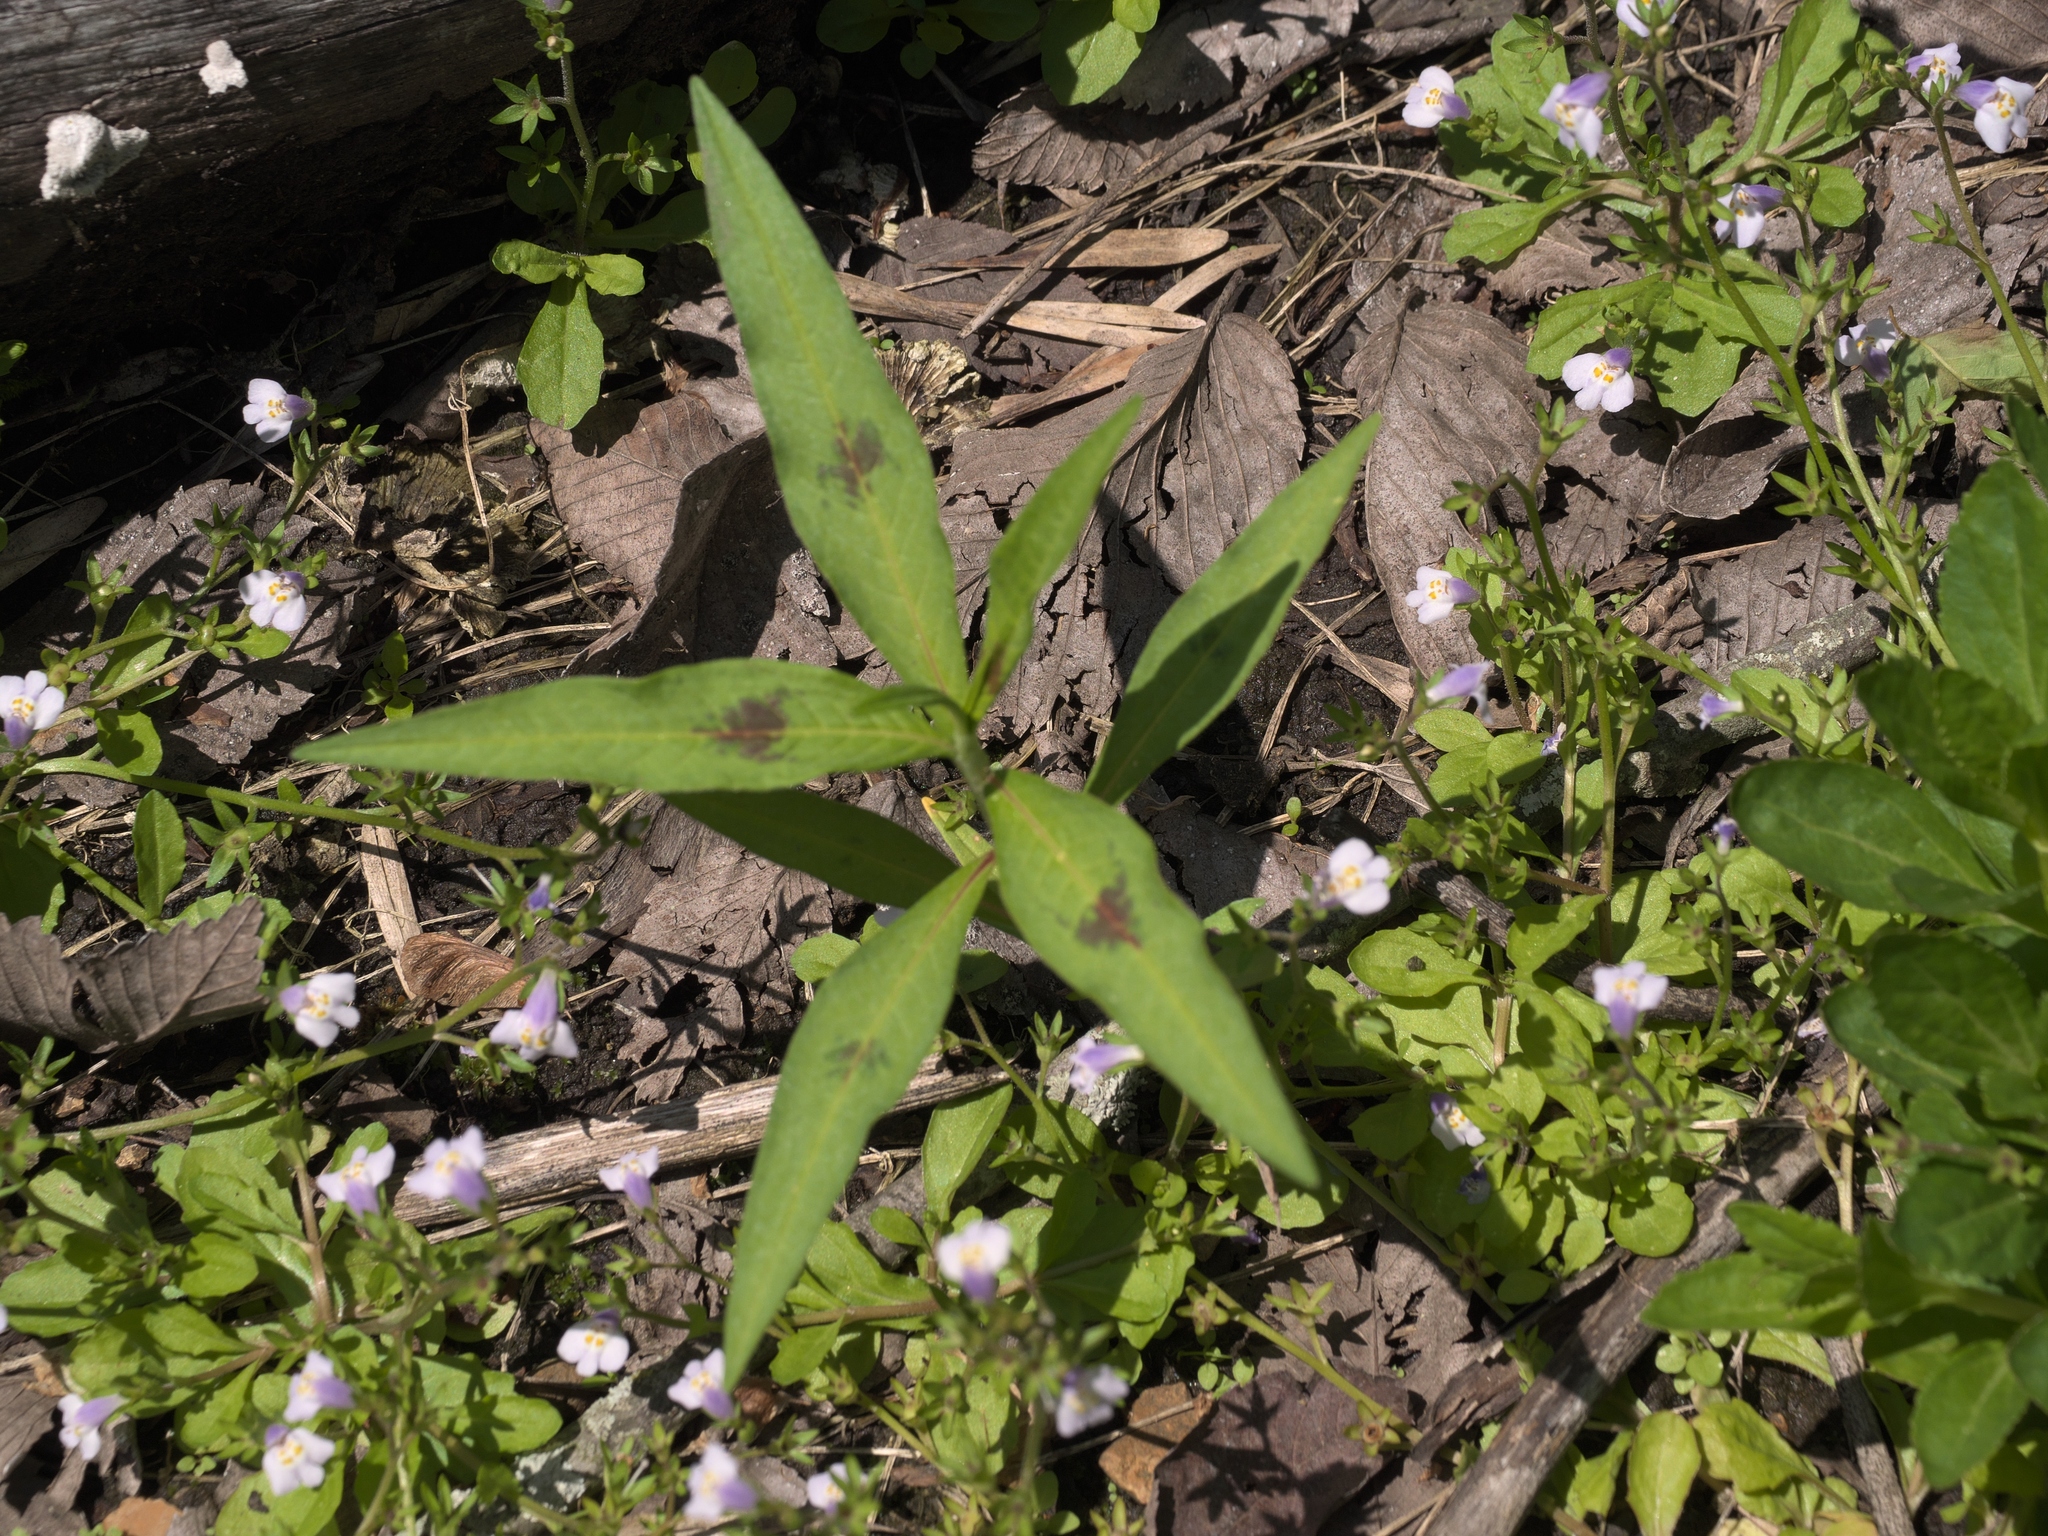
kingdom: Plantae
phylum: Tracheophyta
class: Magnoliopsida
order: Caryophyllales
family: Polygonaceae
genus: Persicaria
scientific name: Persicaria maculosa
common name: Redshank
